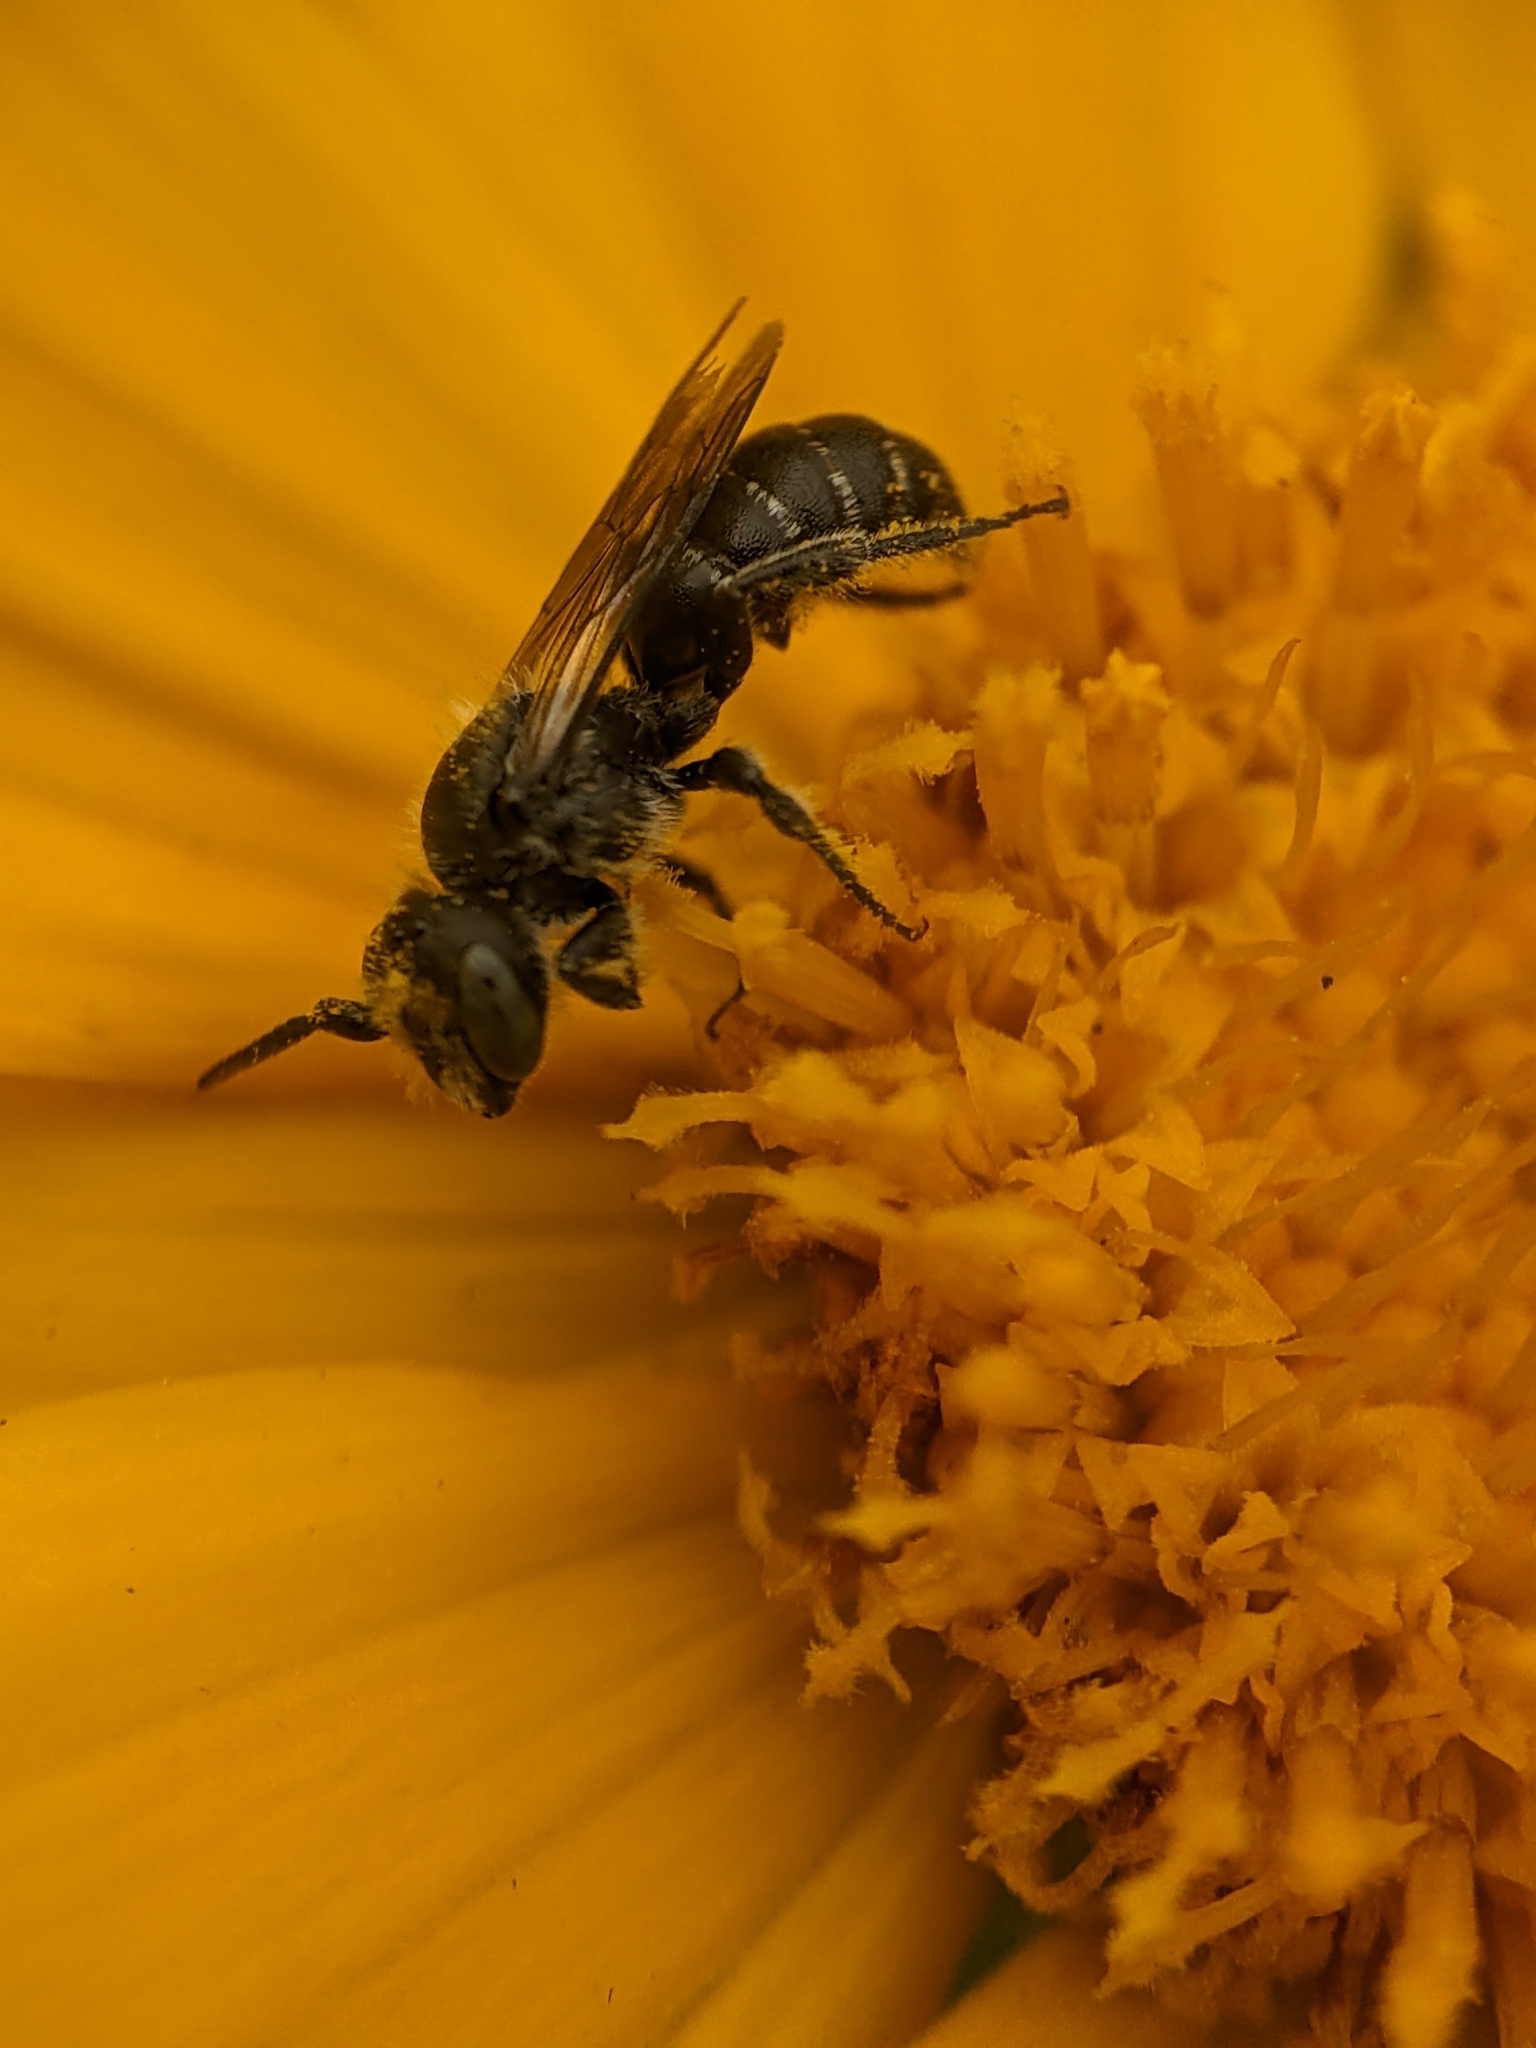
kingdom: Animalia
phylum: Arthropoda
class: Insecta
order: Hymenoptera
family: Megachilidae
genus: Hoplitis
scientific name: Hoplitis producta
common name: Produced small-mason
